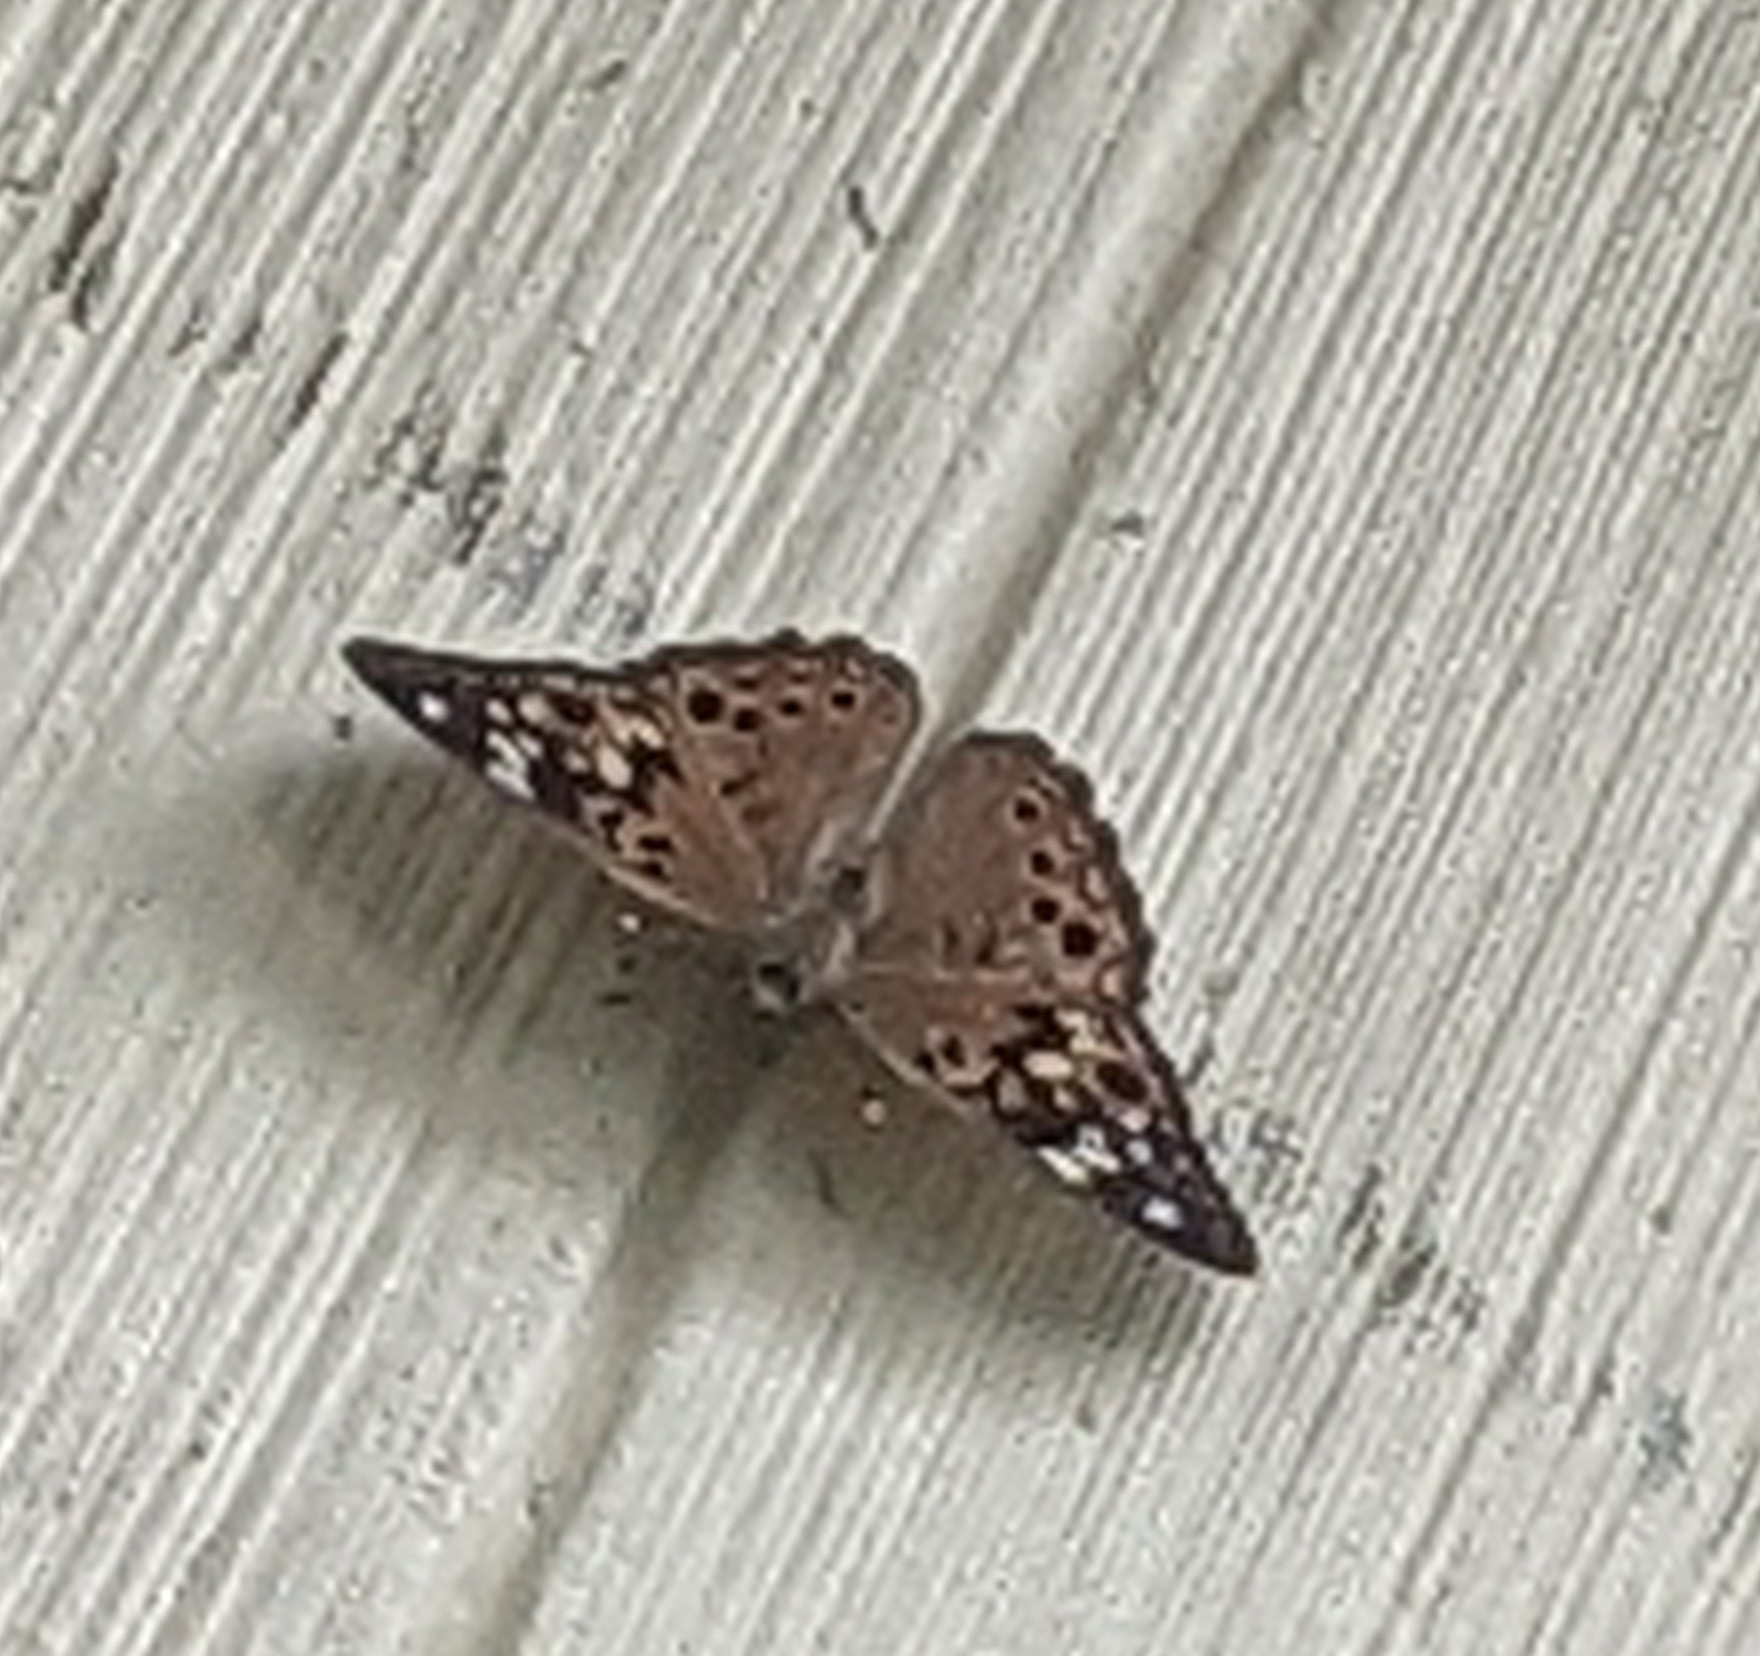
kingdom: Animalia
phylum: Arthropoda
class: Insecta
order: Lepidoptera
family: Nymphalidae
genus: Asterocampa
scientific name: Asterocampa celtis
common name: Hackberry emperor
